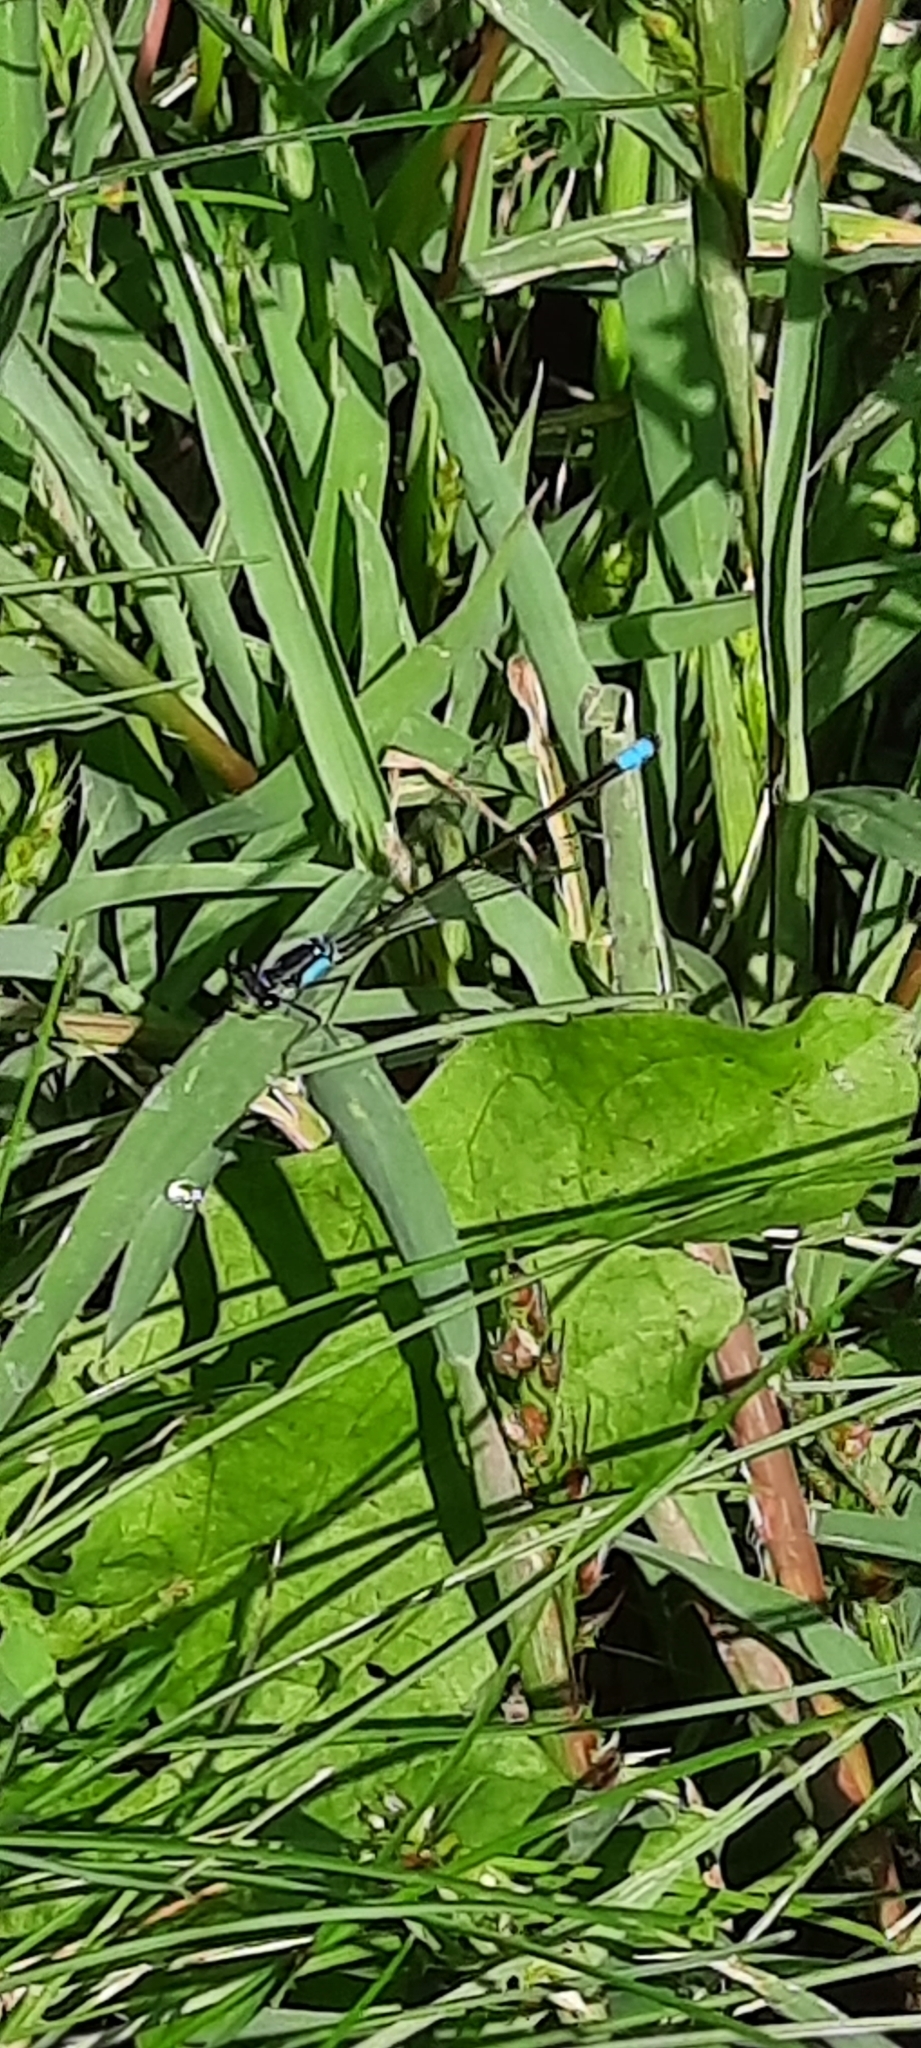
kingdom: Animalia
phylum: Arthropoda
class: Insecta
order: Odonata
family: Coenagrionidae
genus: Ischnura
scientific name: Ischnura cervula
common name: Pacific forktail
